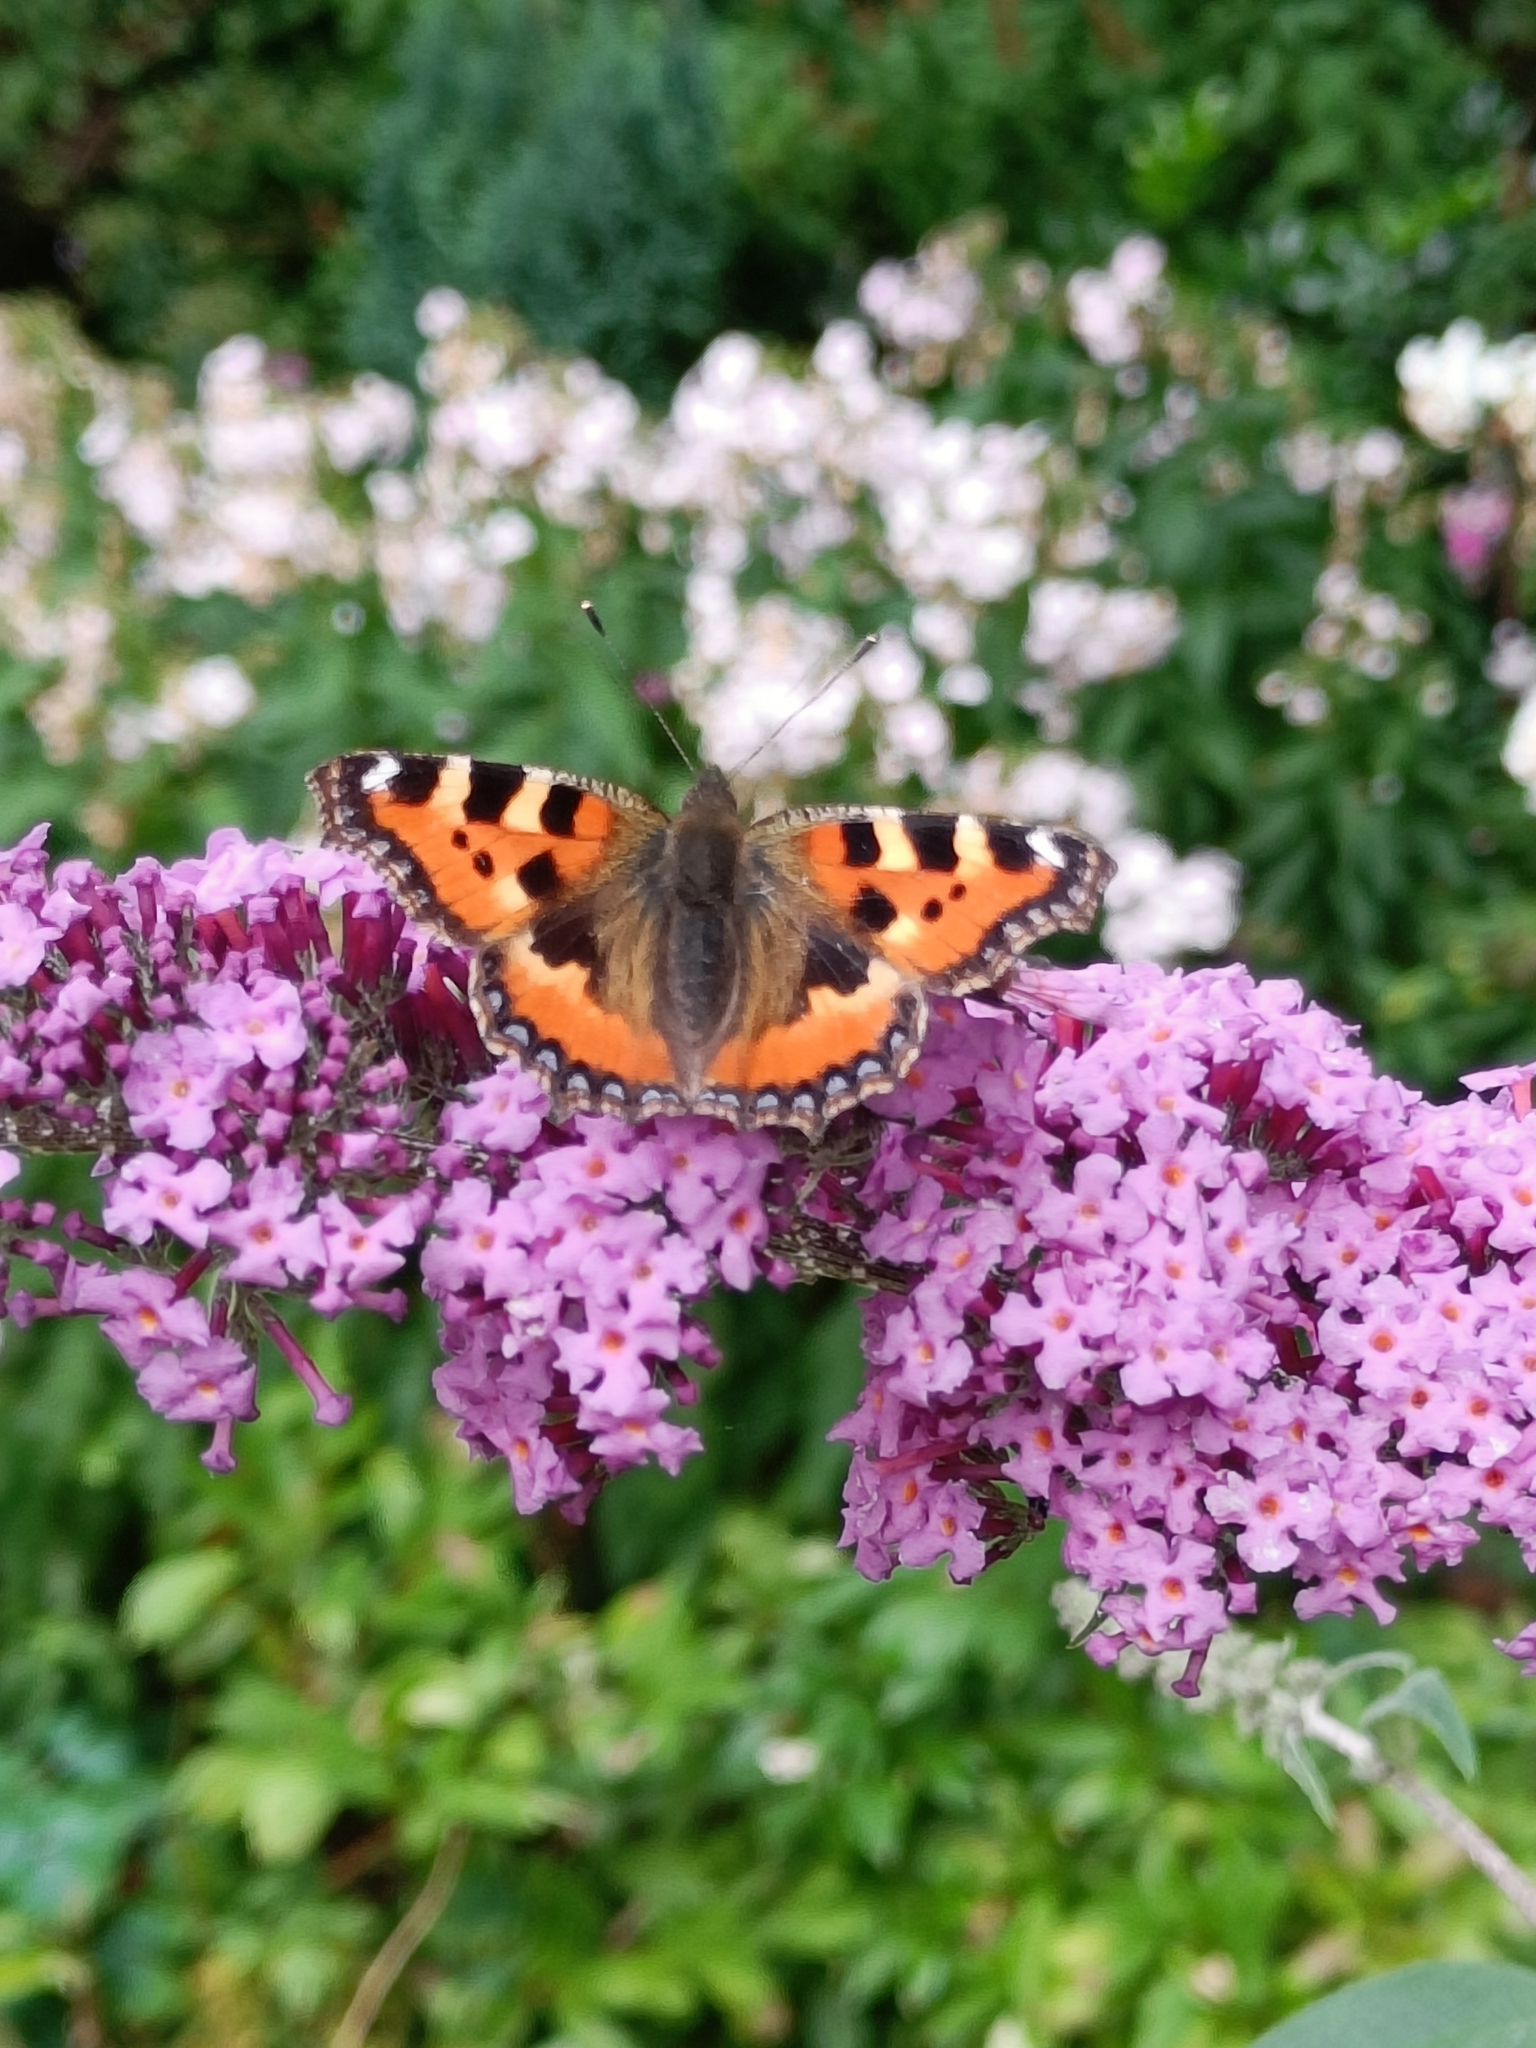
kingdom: Animalia
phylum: Arthropoda
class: Insecta
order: Lepidoptera
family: Nymphalidae
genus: Aglais
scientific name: Aglais urticae
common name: Small tortoiseshell
